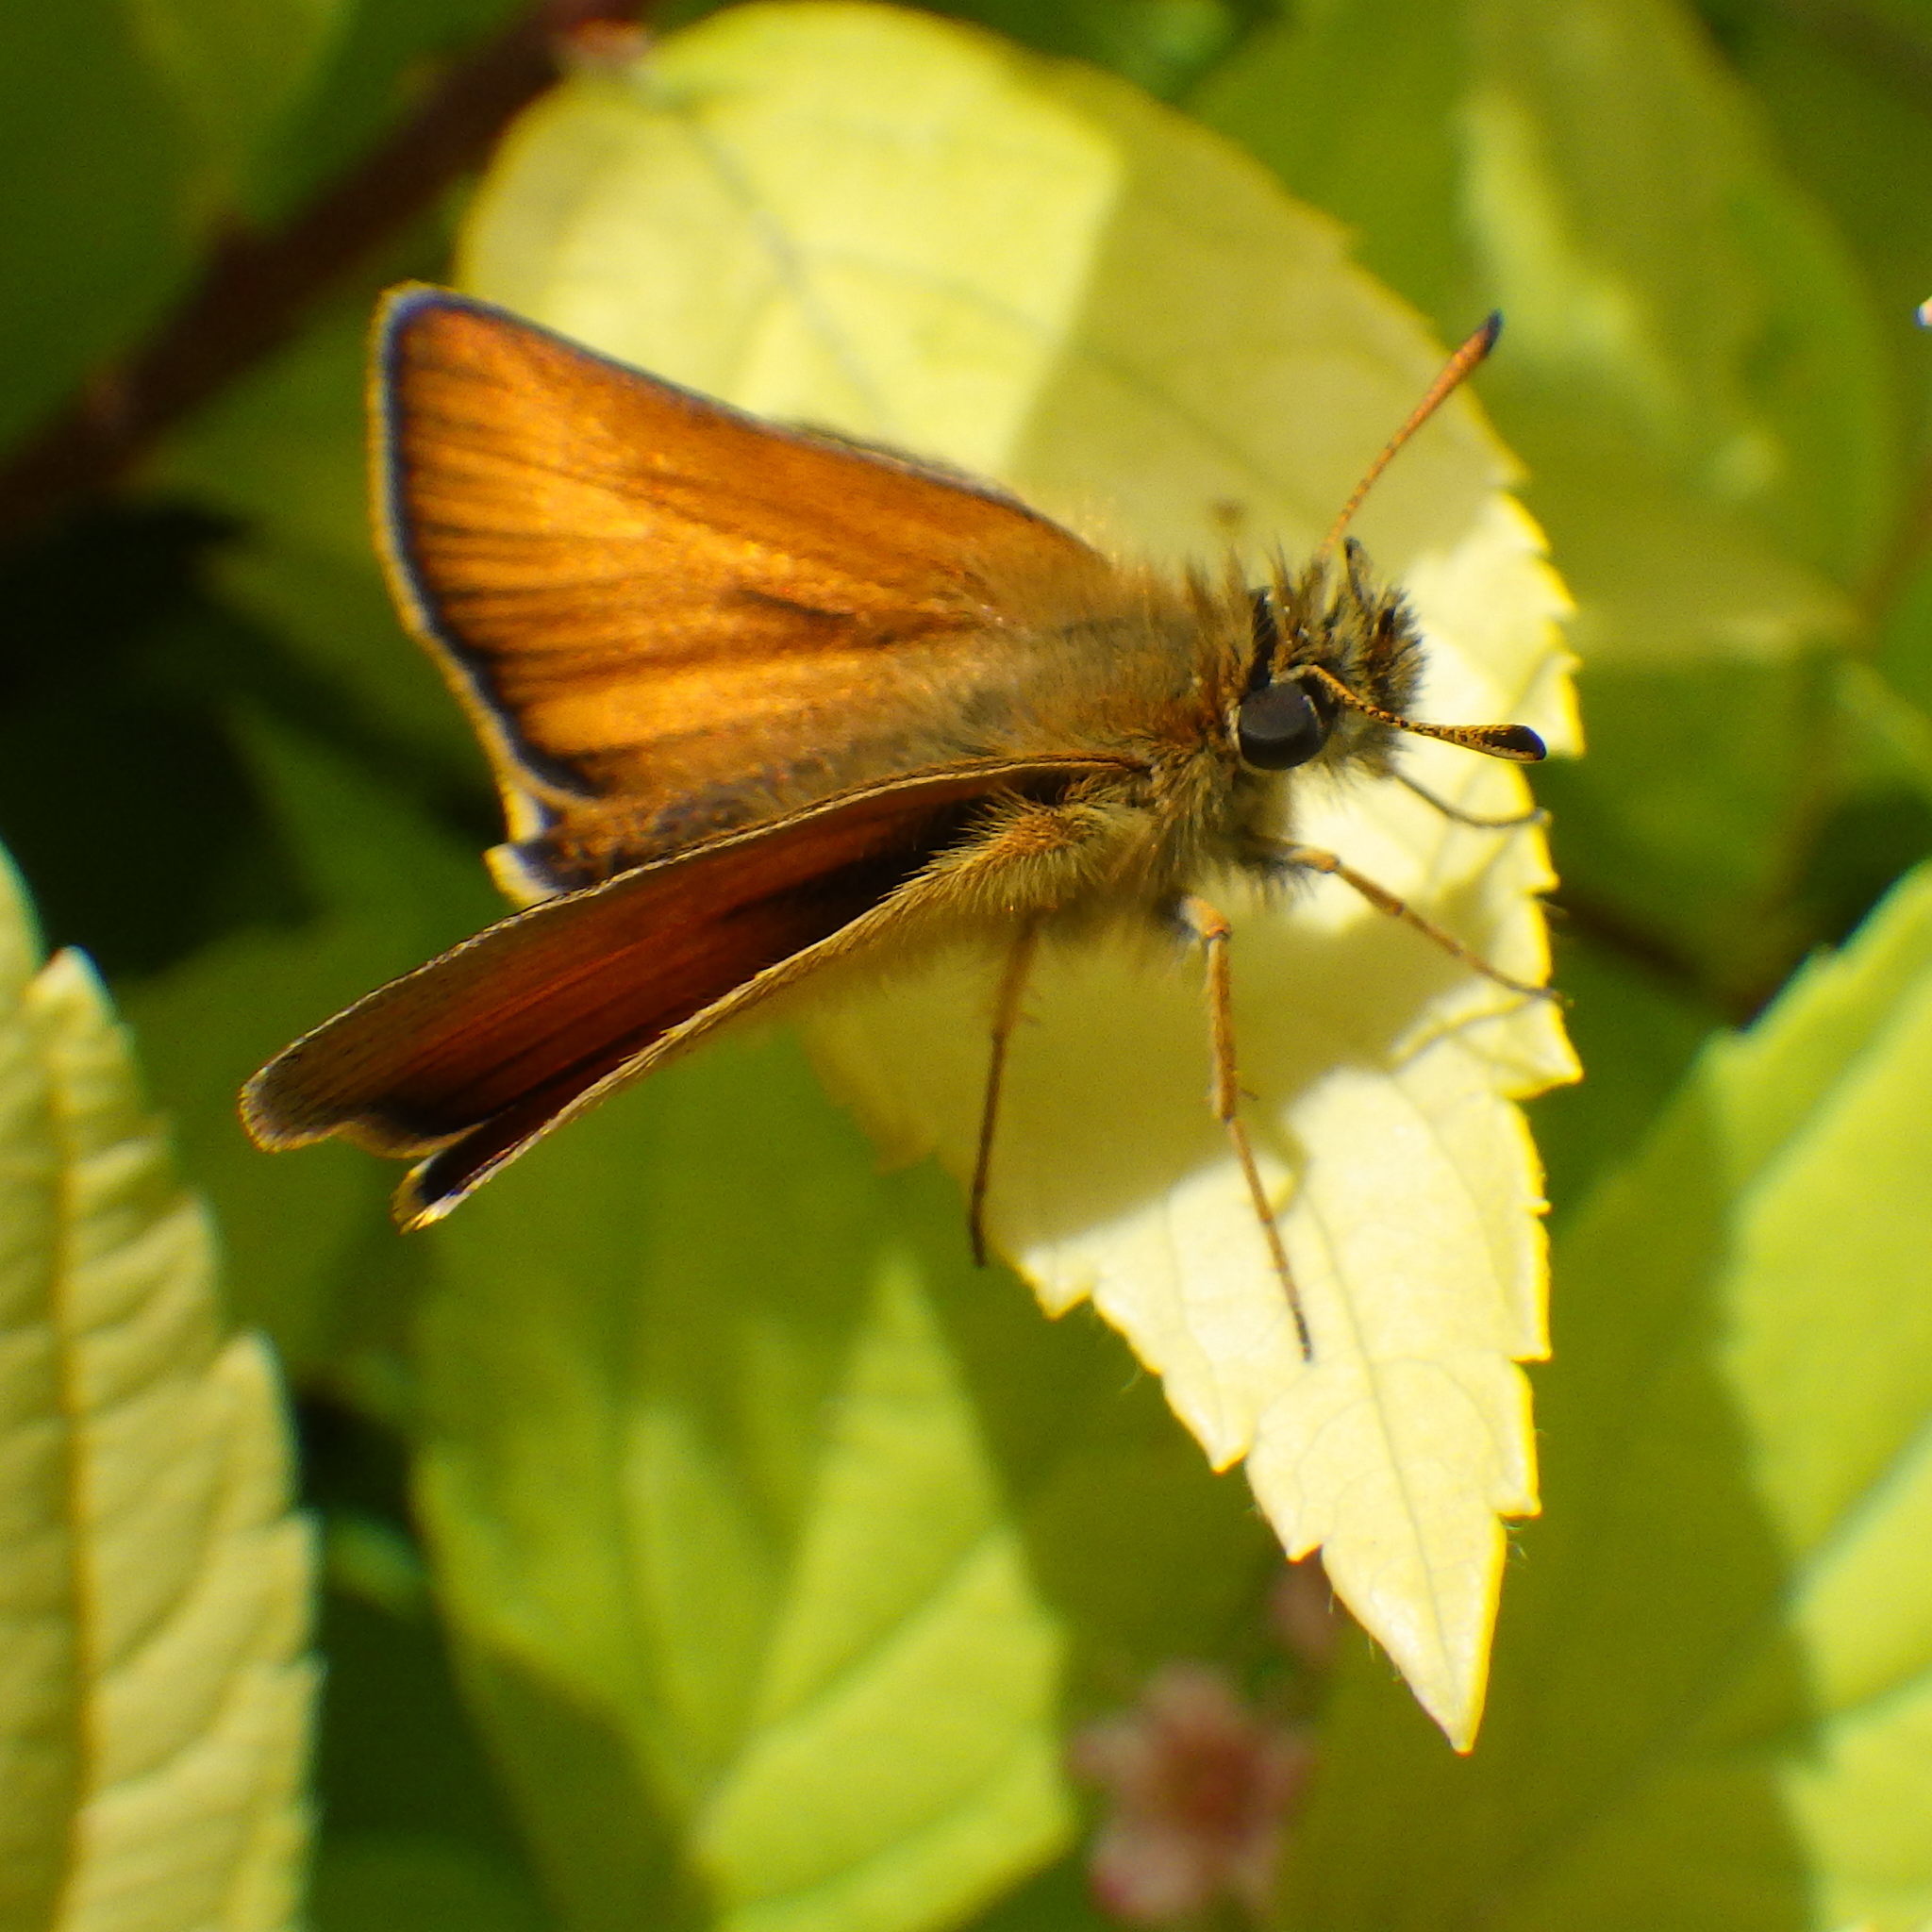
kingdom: Animalia
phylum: Arthropoda
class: Insecta
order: Lepidoptera
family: Hesperiidae
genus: Thymelicus
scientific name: Thymelicus lineola
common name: Essex skipper
